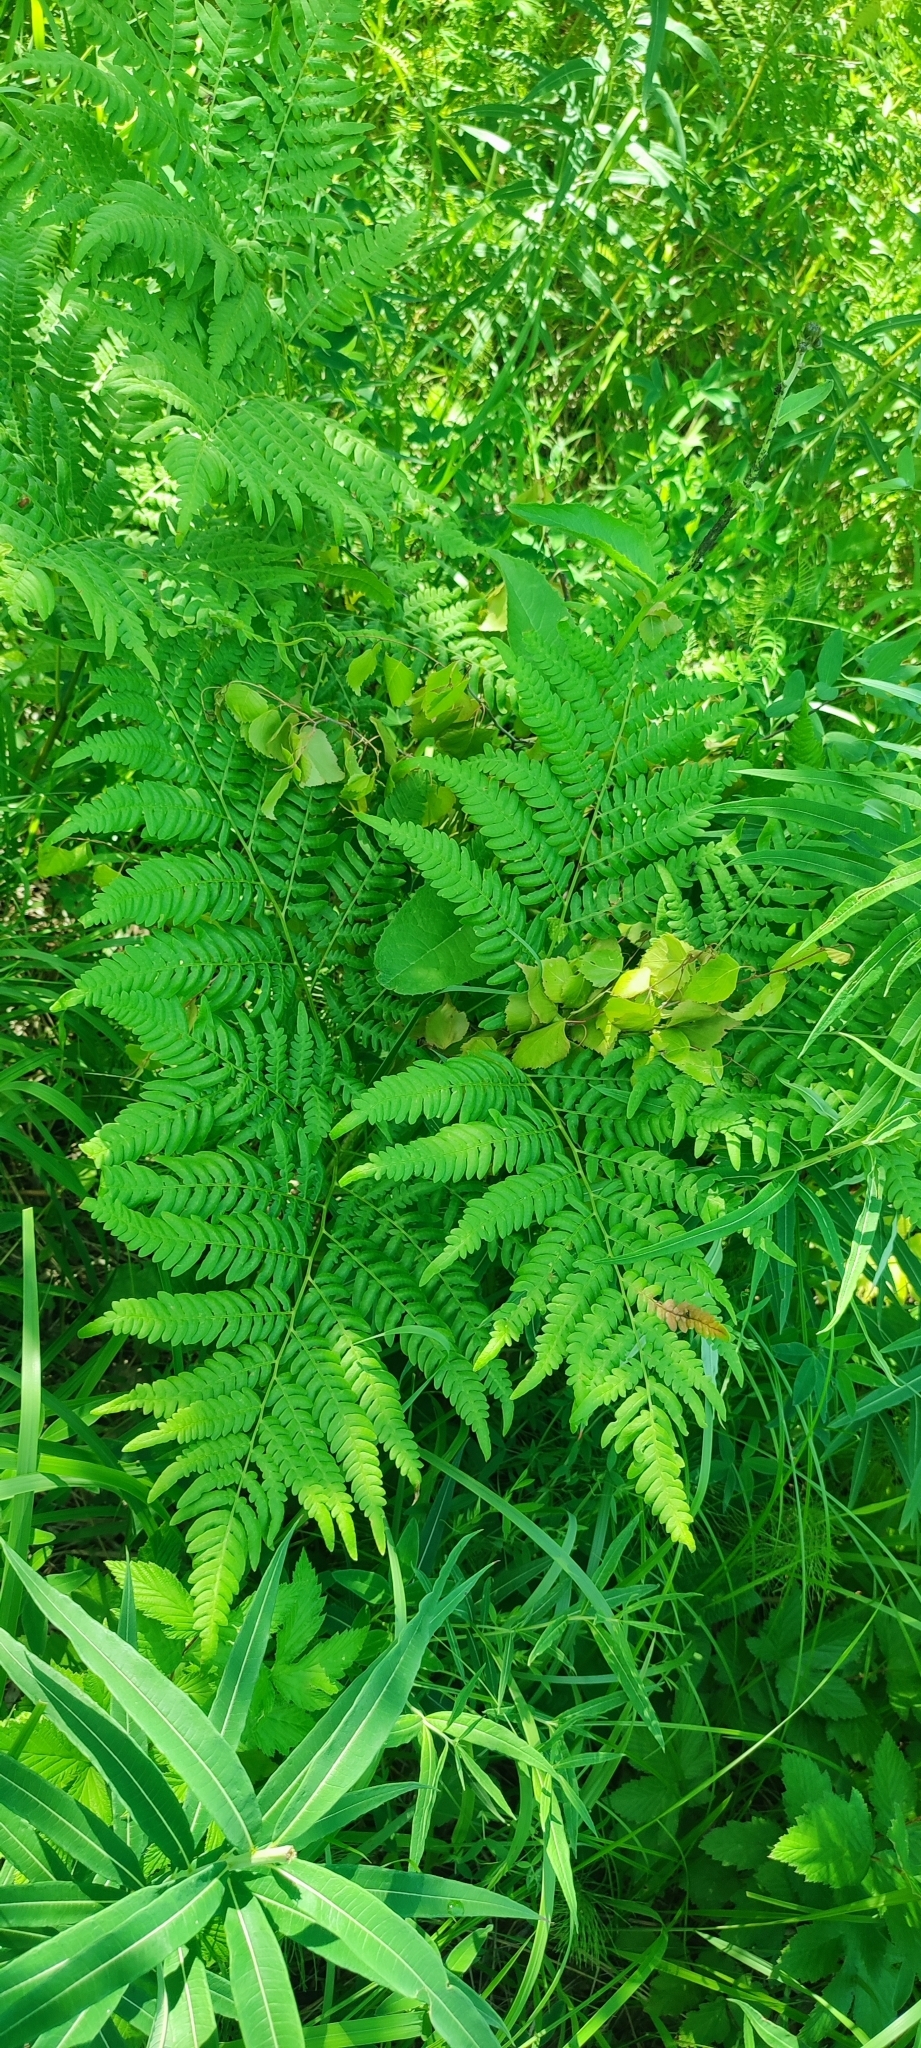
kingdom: Plantae
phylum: Tracheophyta
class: Polypodiopsida
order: Polypodiales
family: Dennstaedtiaceae
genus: Pteridium
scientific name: Pteridium aquilinum
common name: Bracken
